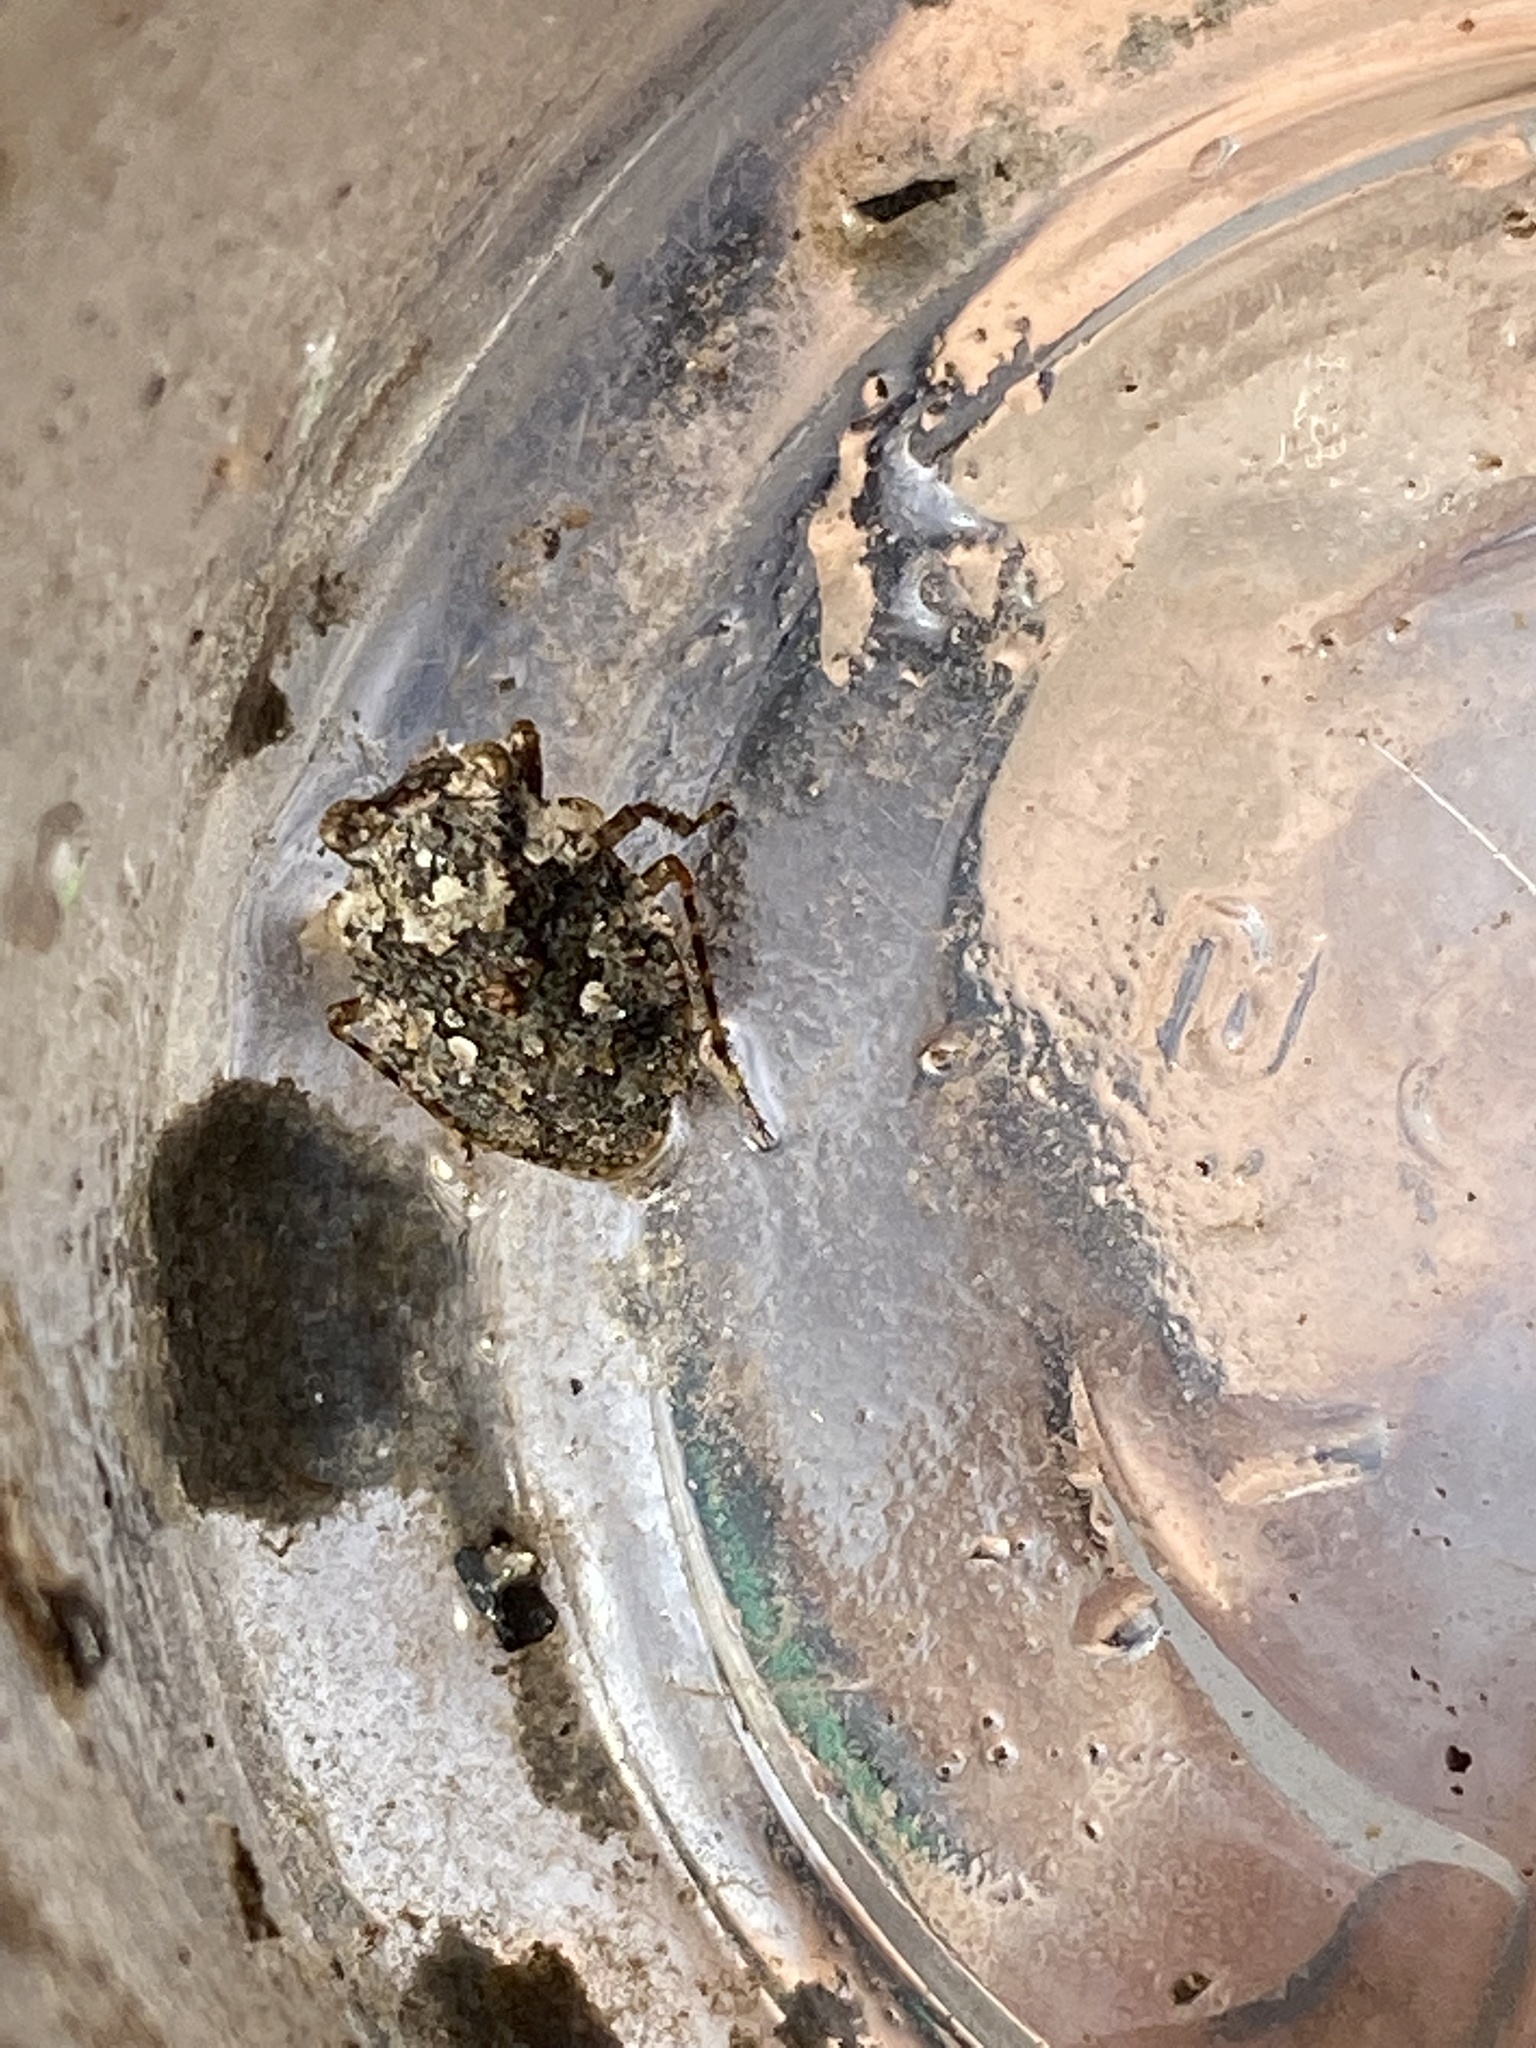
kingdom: Animalia
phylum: Arthropoda
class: Insecta
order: Hemiptera
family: Gelastocoridae
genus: Gelastocoris
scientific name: Gelastocoris oculatus
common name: Toad bug
